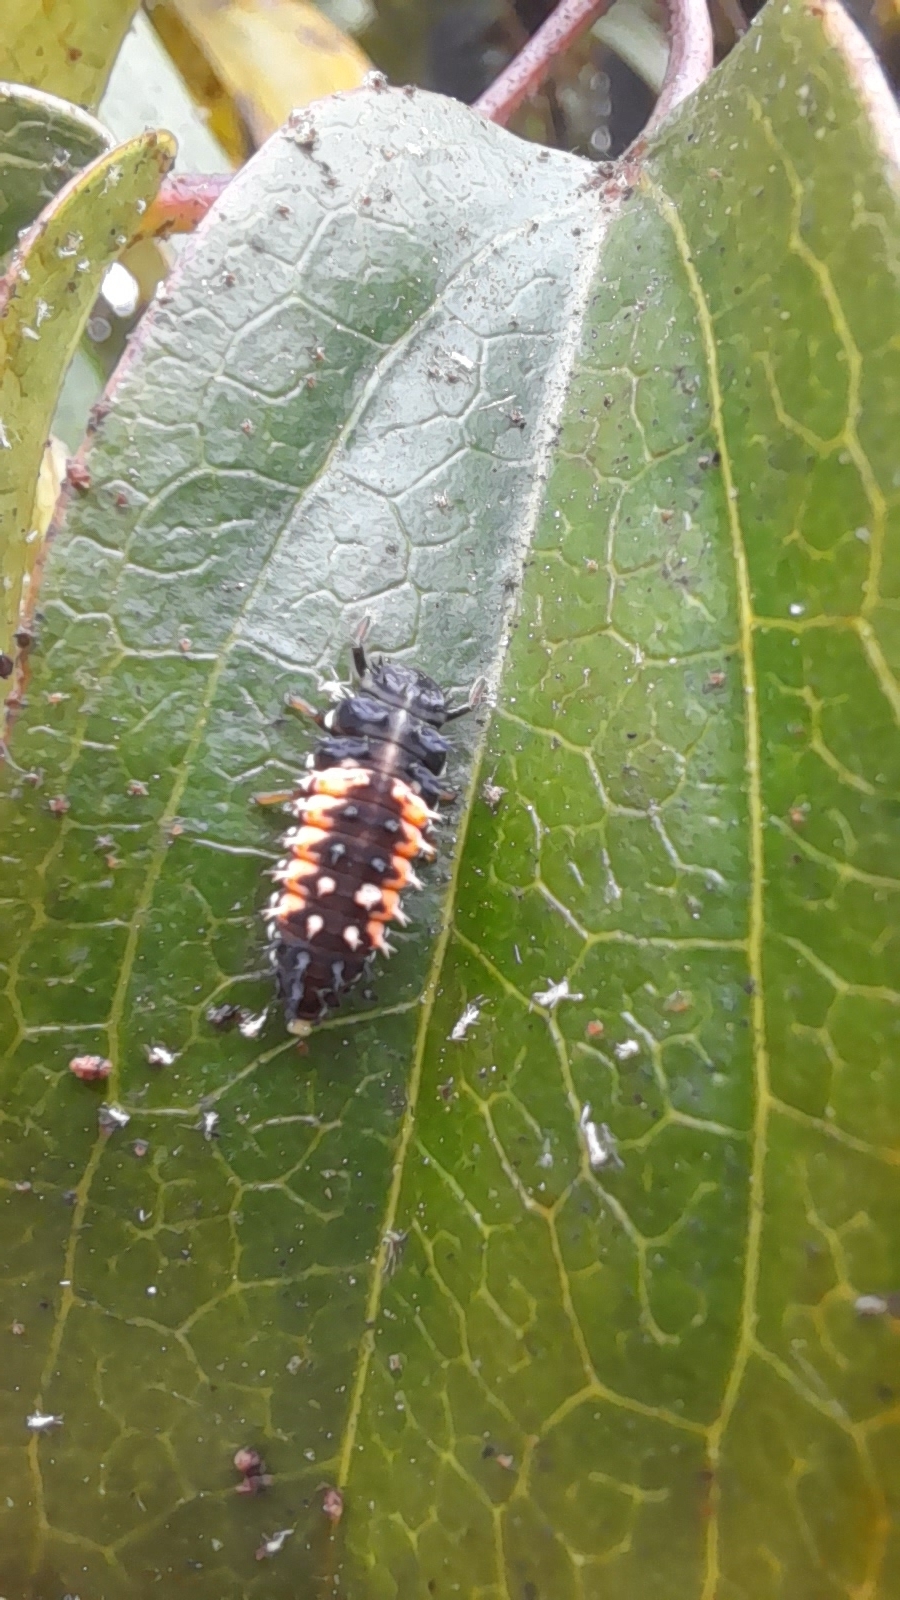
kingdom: Animalia
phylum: Arthropoda
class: Insecta
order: Coleoptera
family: Coccinellidae
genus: Harmonia
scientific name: Harmonia axyridis
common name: Harlequin ladybird
